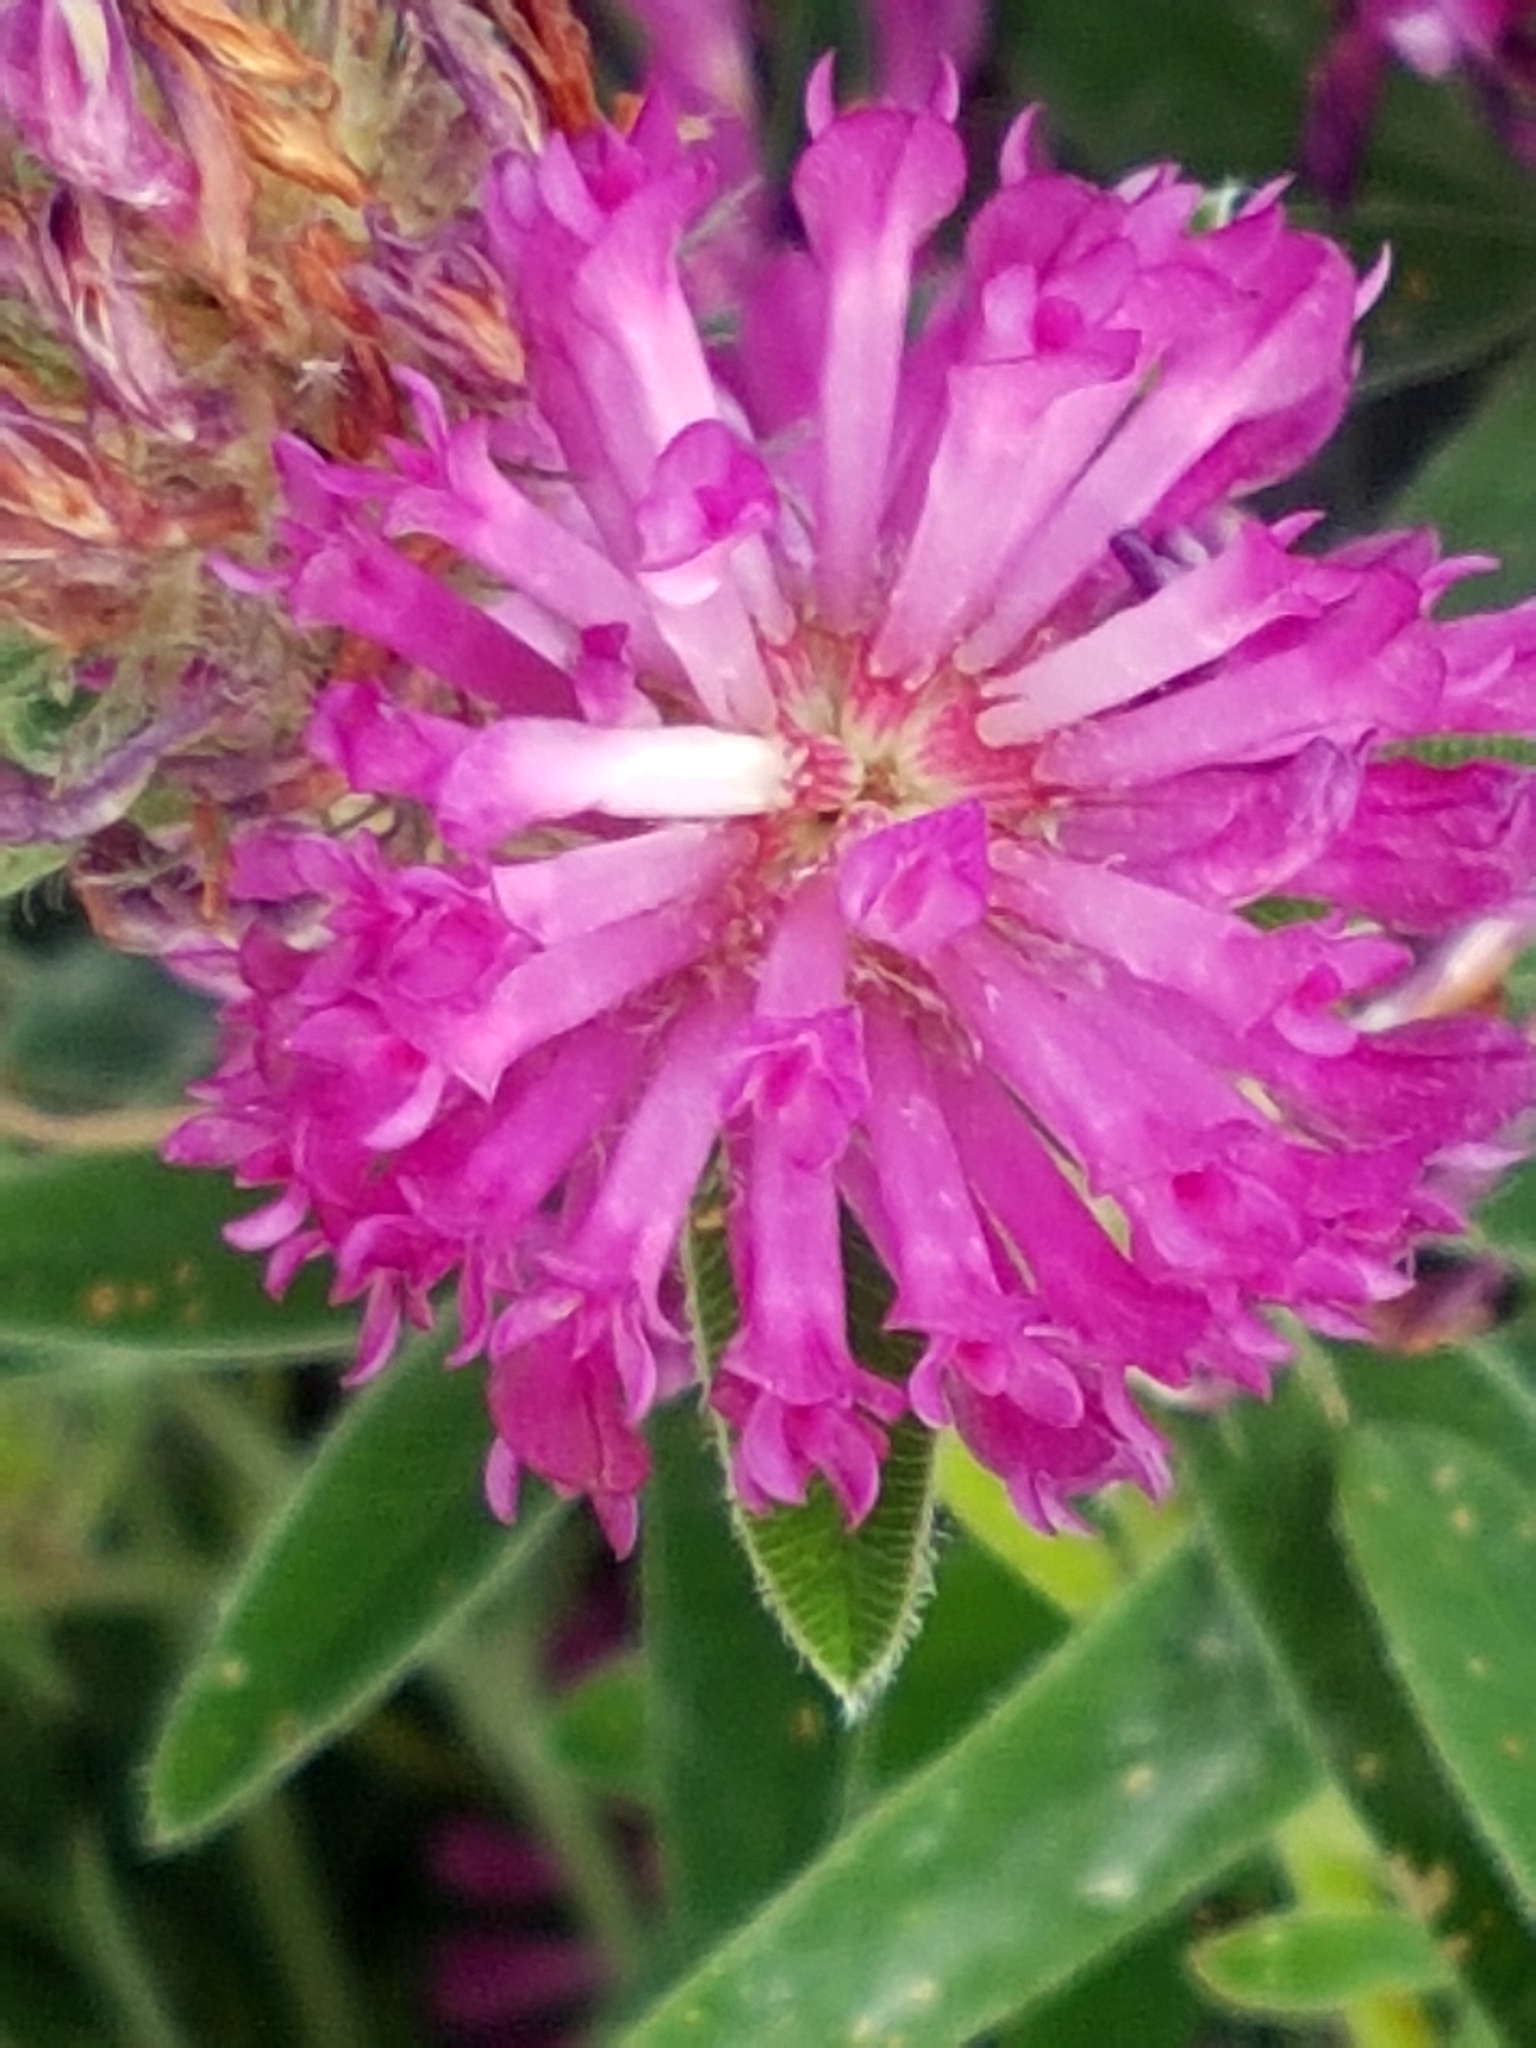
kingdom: Plantae
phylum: Tracheophyta
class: Magnoliopsida
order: Fabales
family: Fabaceae
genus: Trifolium
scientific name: Trifolium medium
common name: Zigzag clover
